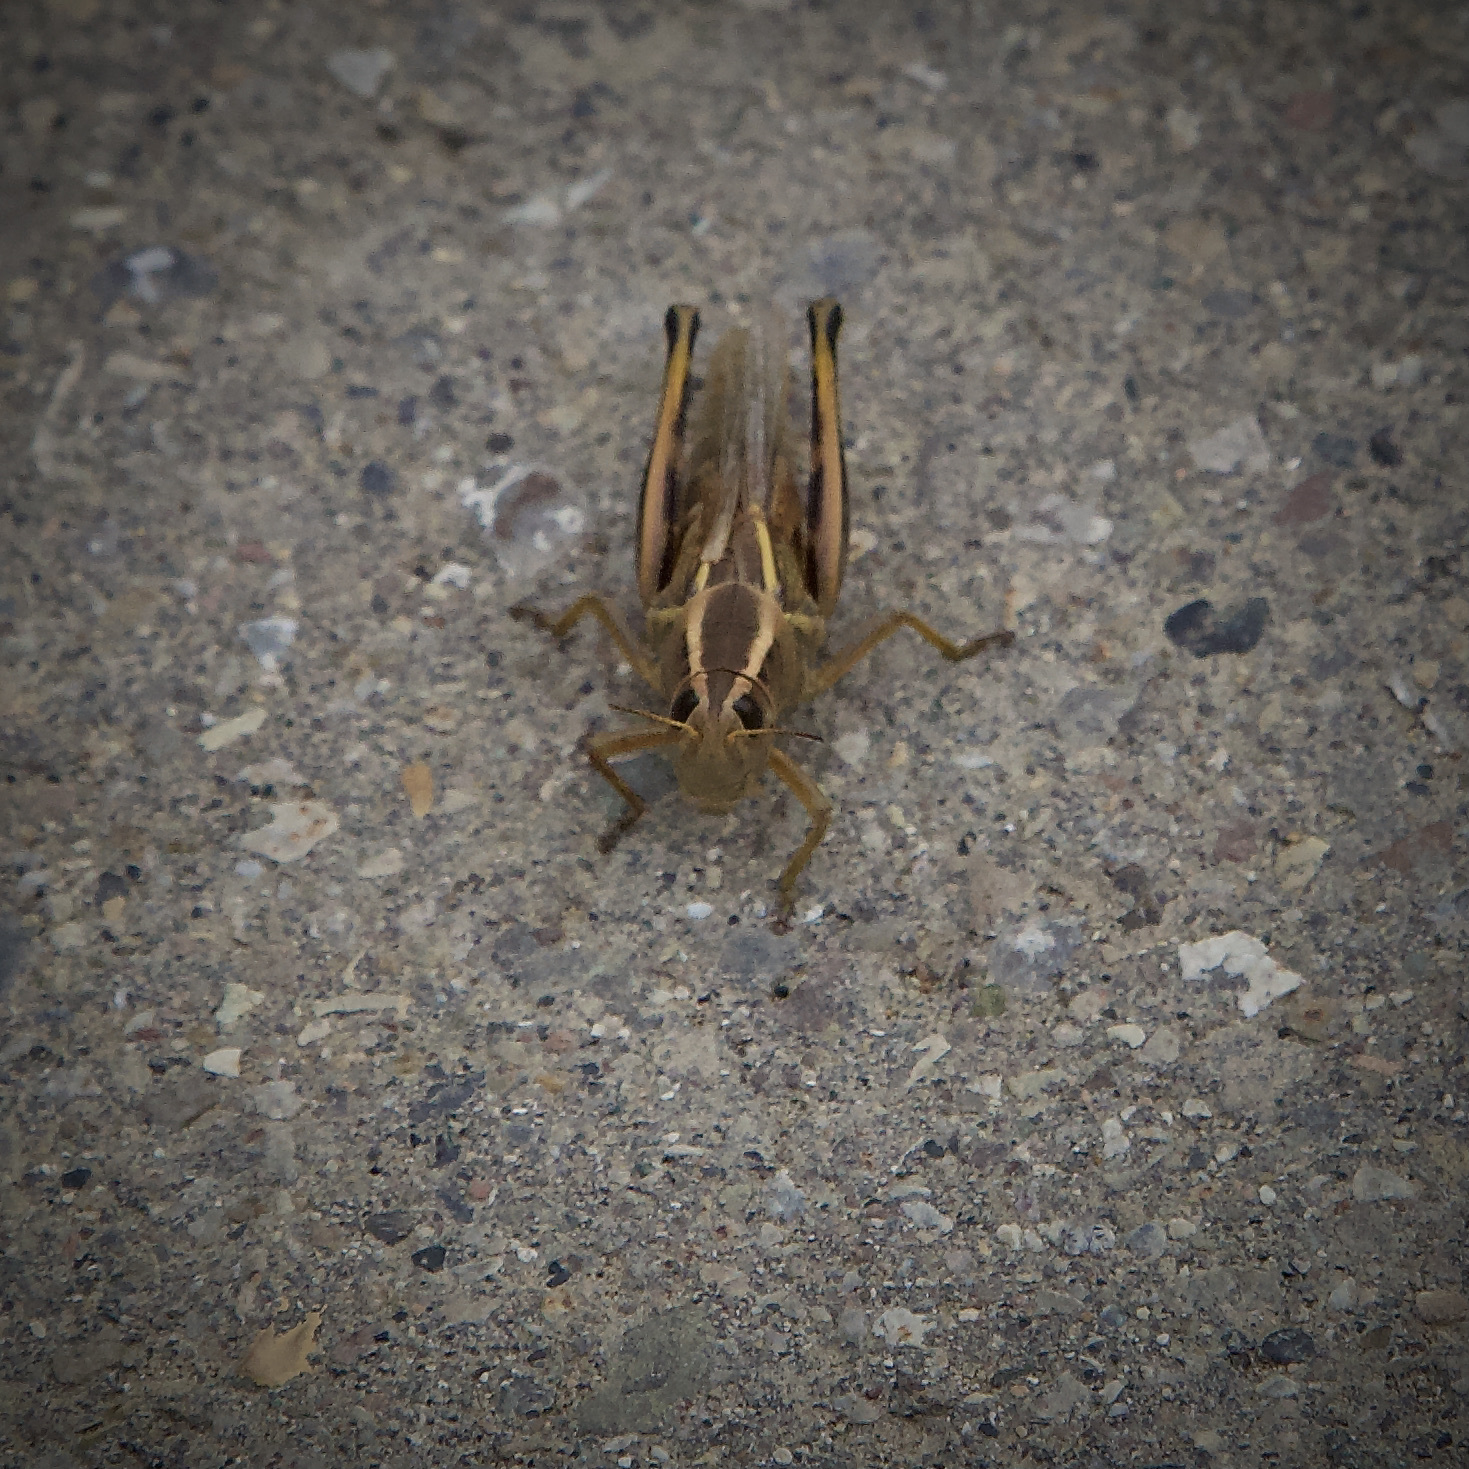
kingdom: Animalia
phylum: Arthropoda
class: Insecta
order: Orthoptera
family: Acrididae
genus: Melanoplus
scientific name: Melanoplus bivittatus
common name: Two-striped grasshopper
